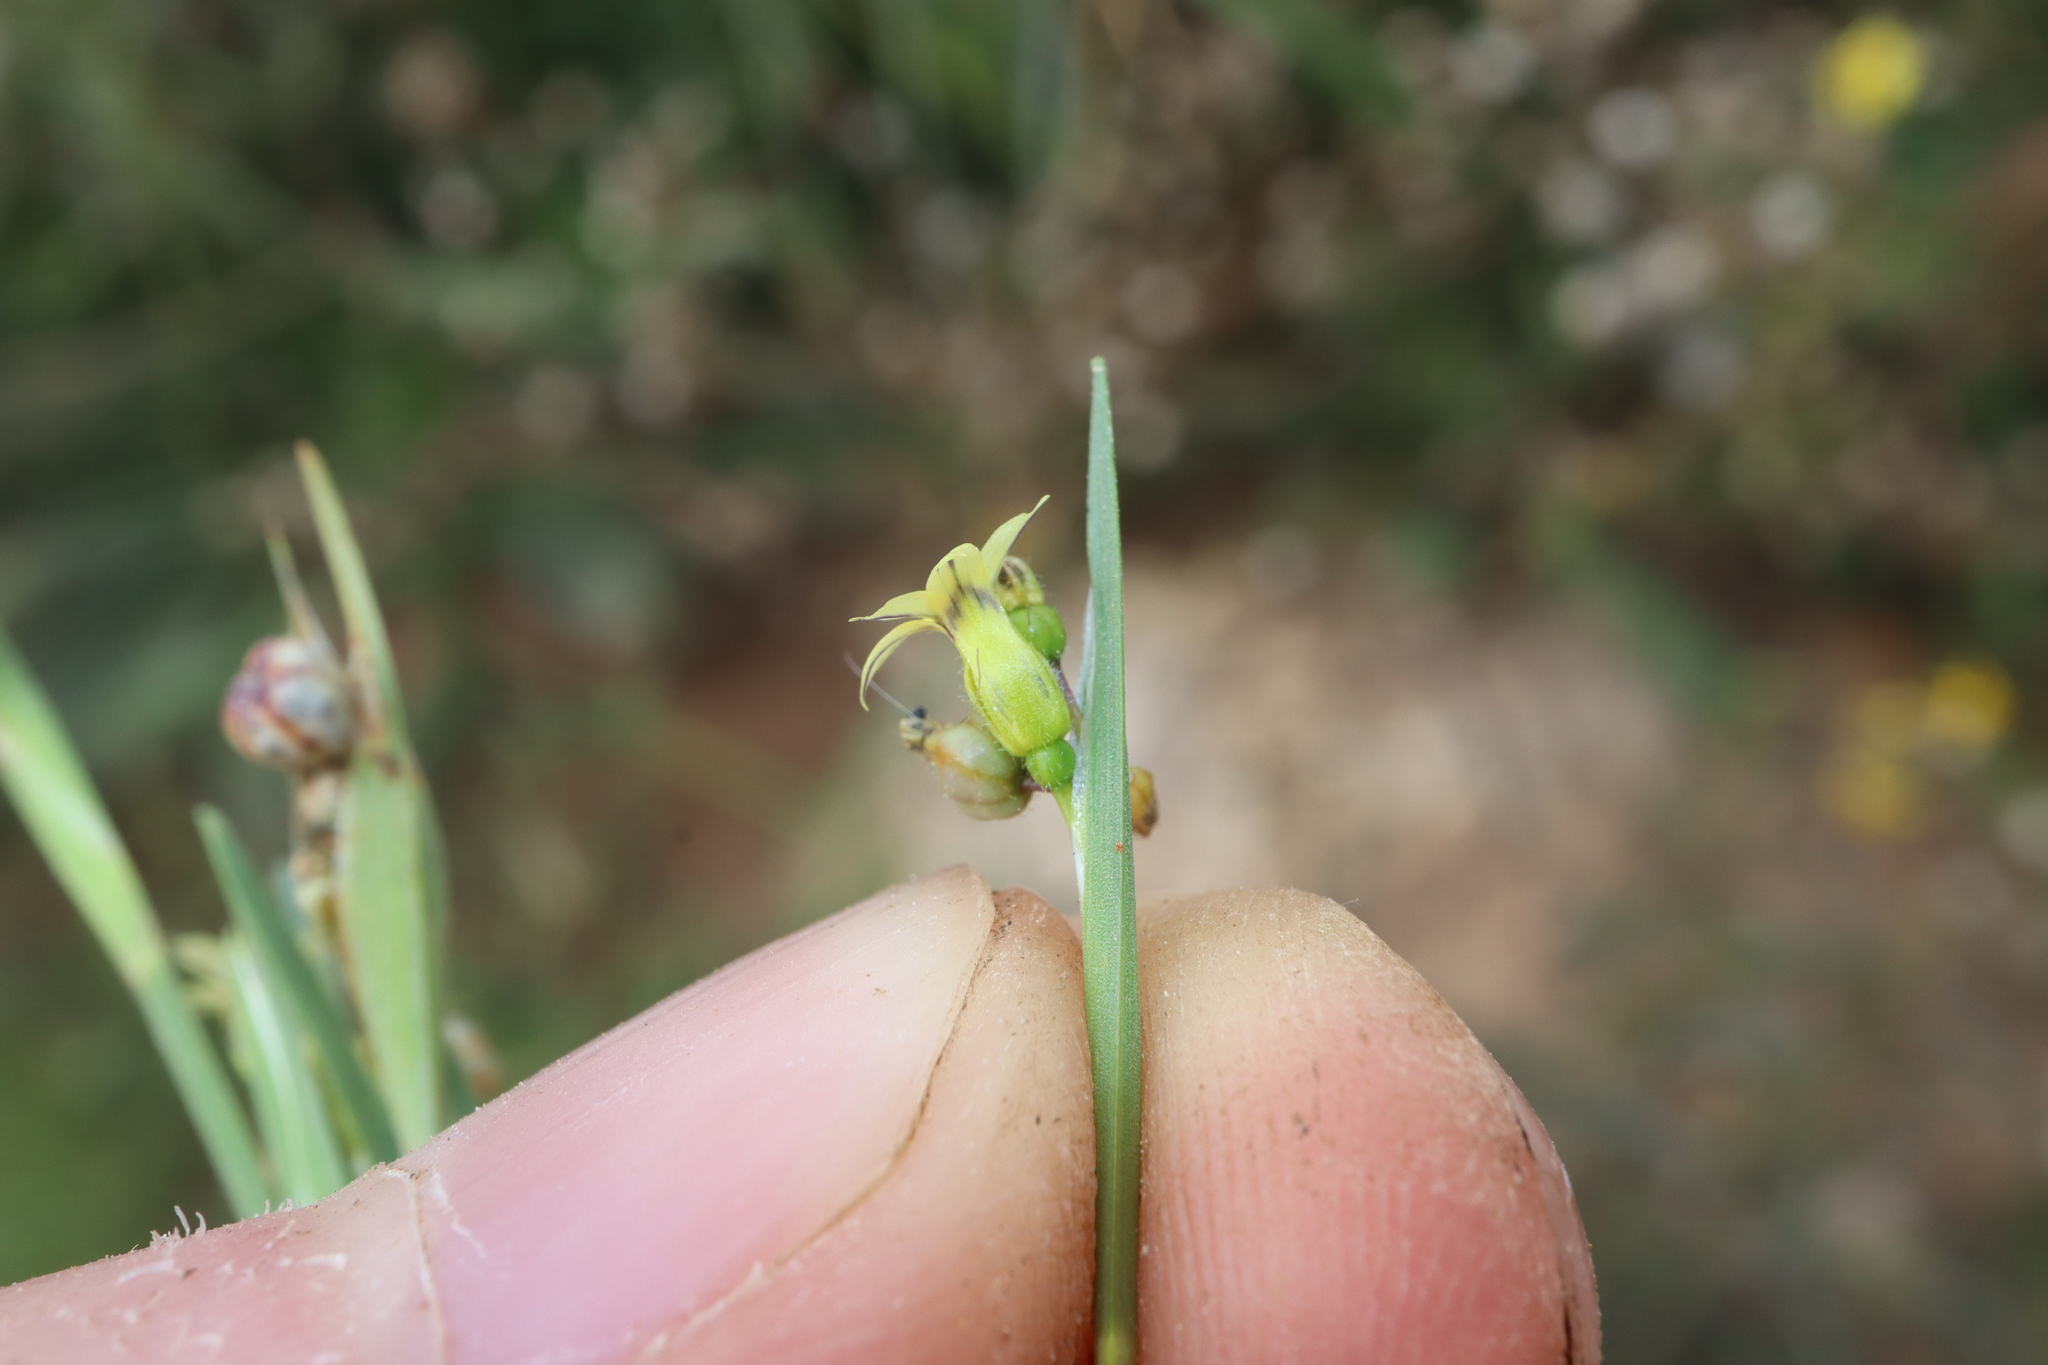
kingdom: Plantae
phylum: Tracheophyta
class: Liliopsida
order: Asparagales
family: Iridaceae
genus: Sisyrinchium
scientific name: Sisyrinchium micranthum
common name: Bermuda pigroot
